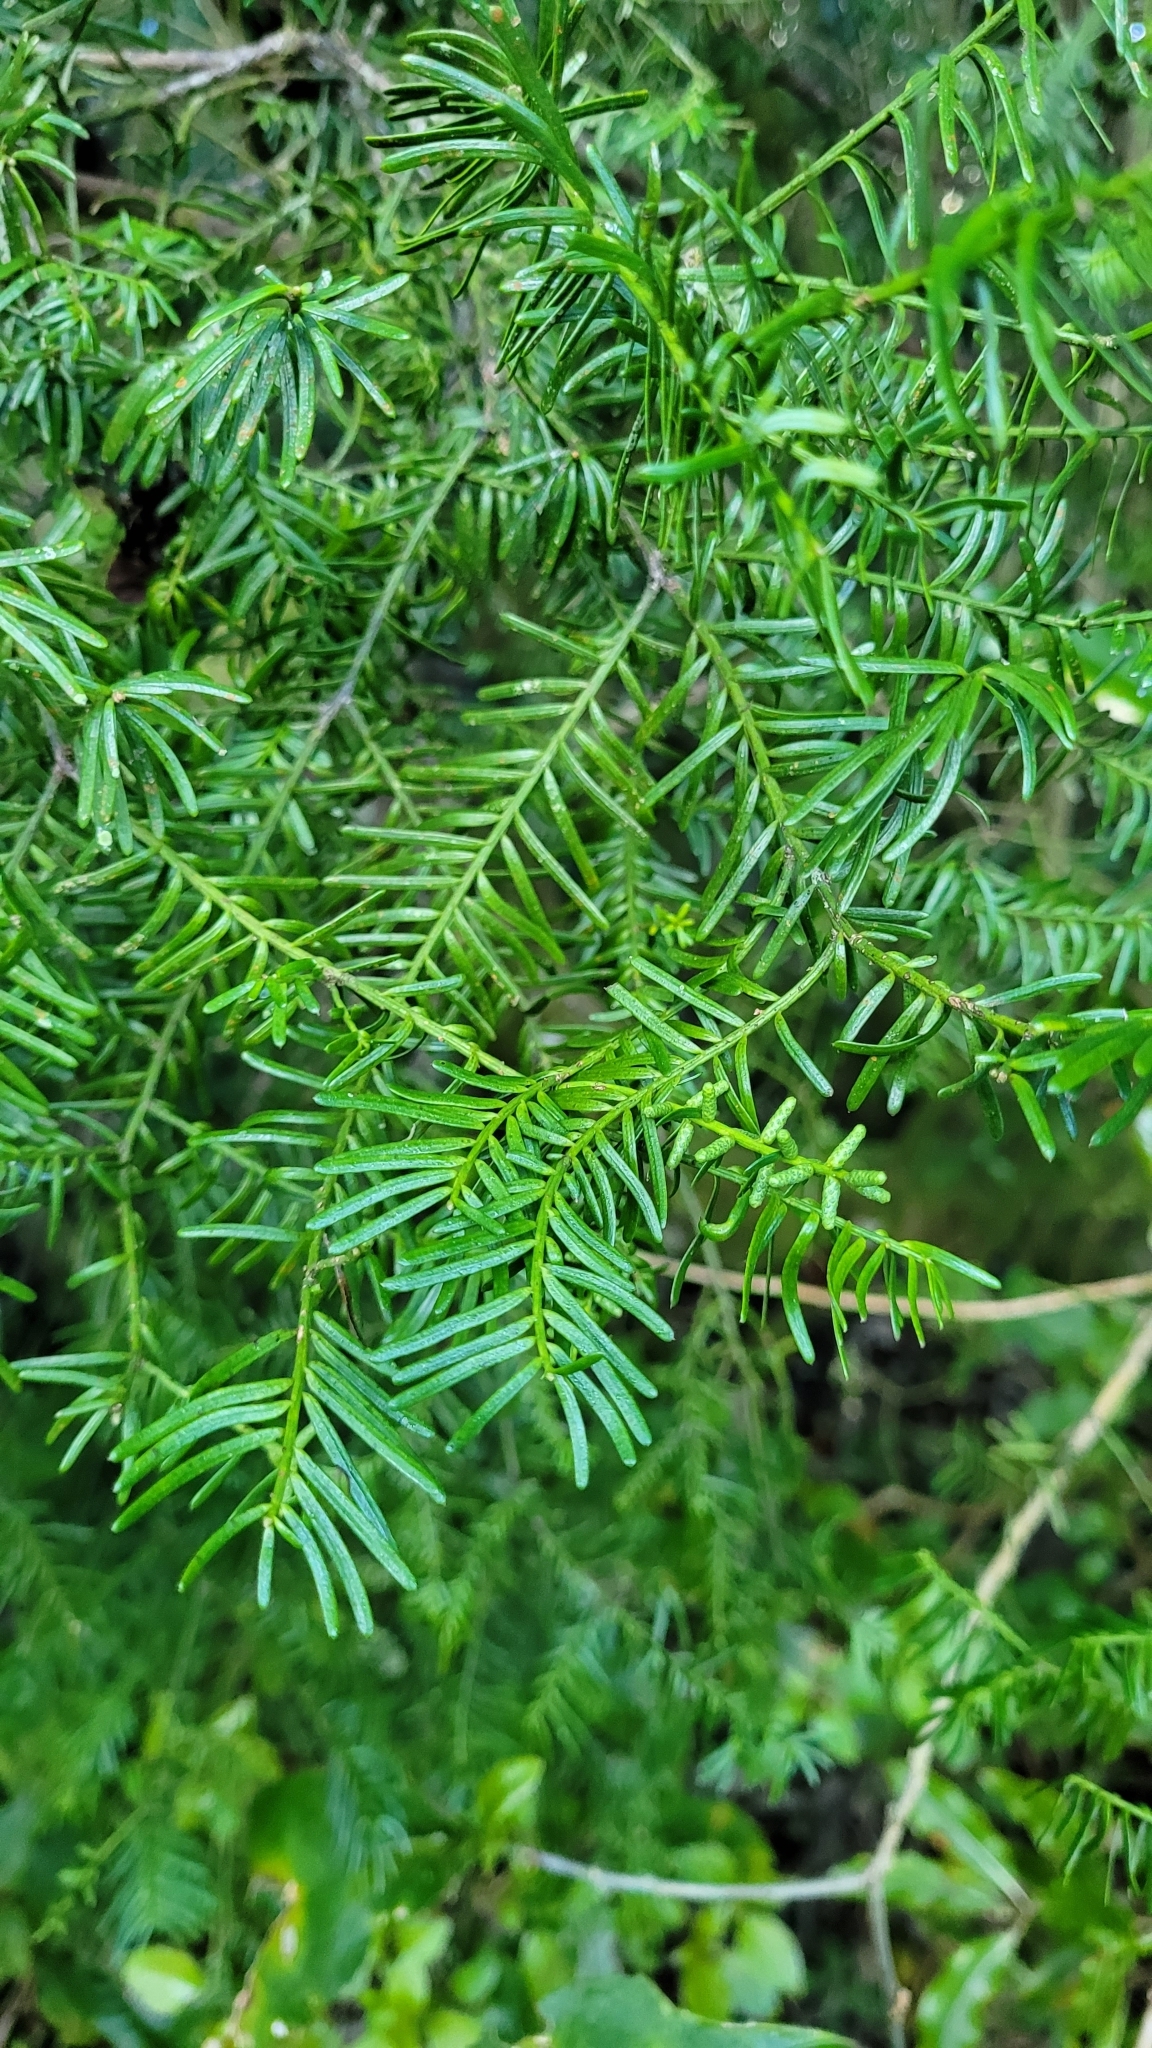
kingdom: Plantae
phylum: Tracheophyta
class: Pinopsida
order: Pinales
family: Podocarpaceae
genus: Prumnopitys
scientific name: Prumnopitys taxifolia
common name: Matai
